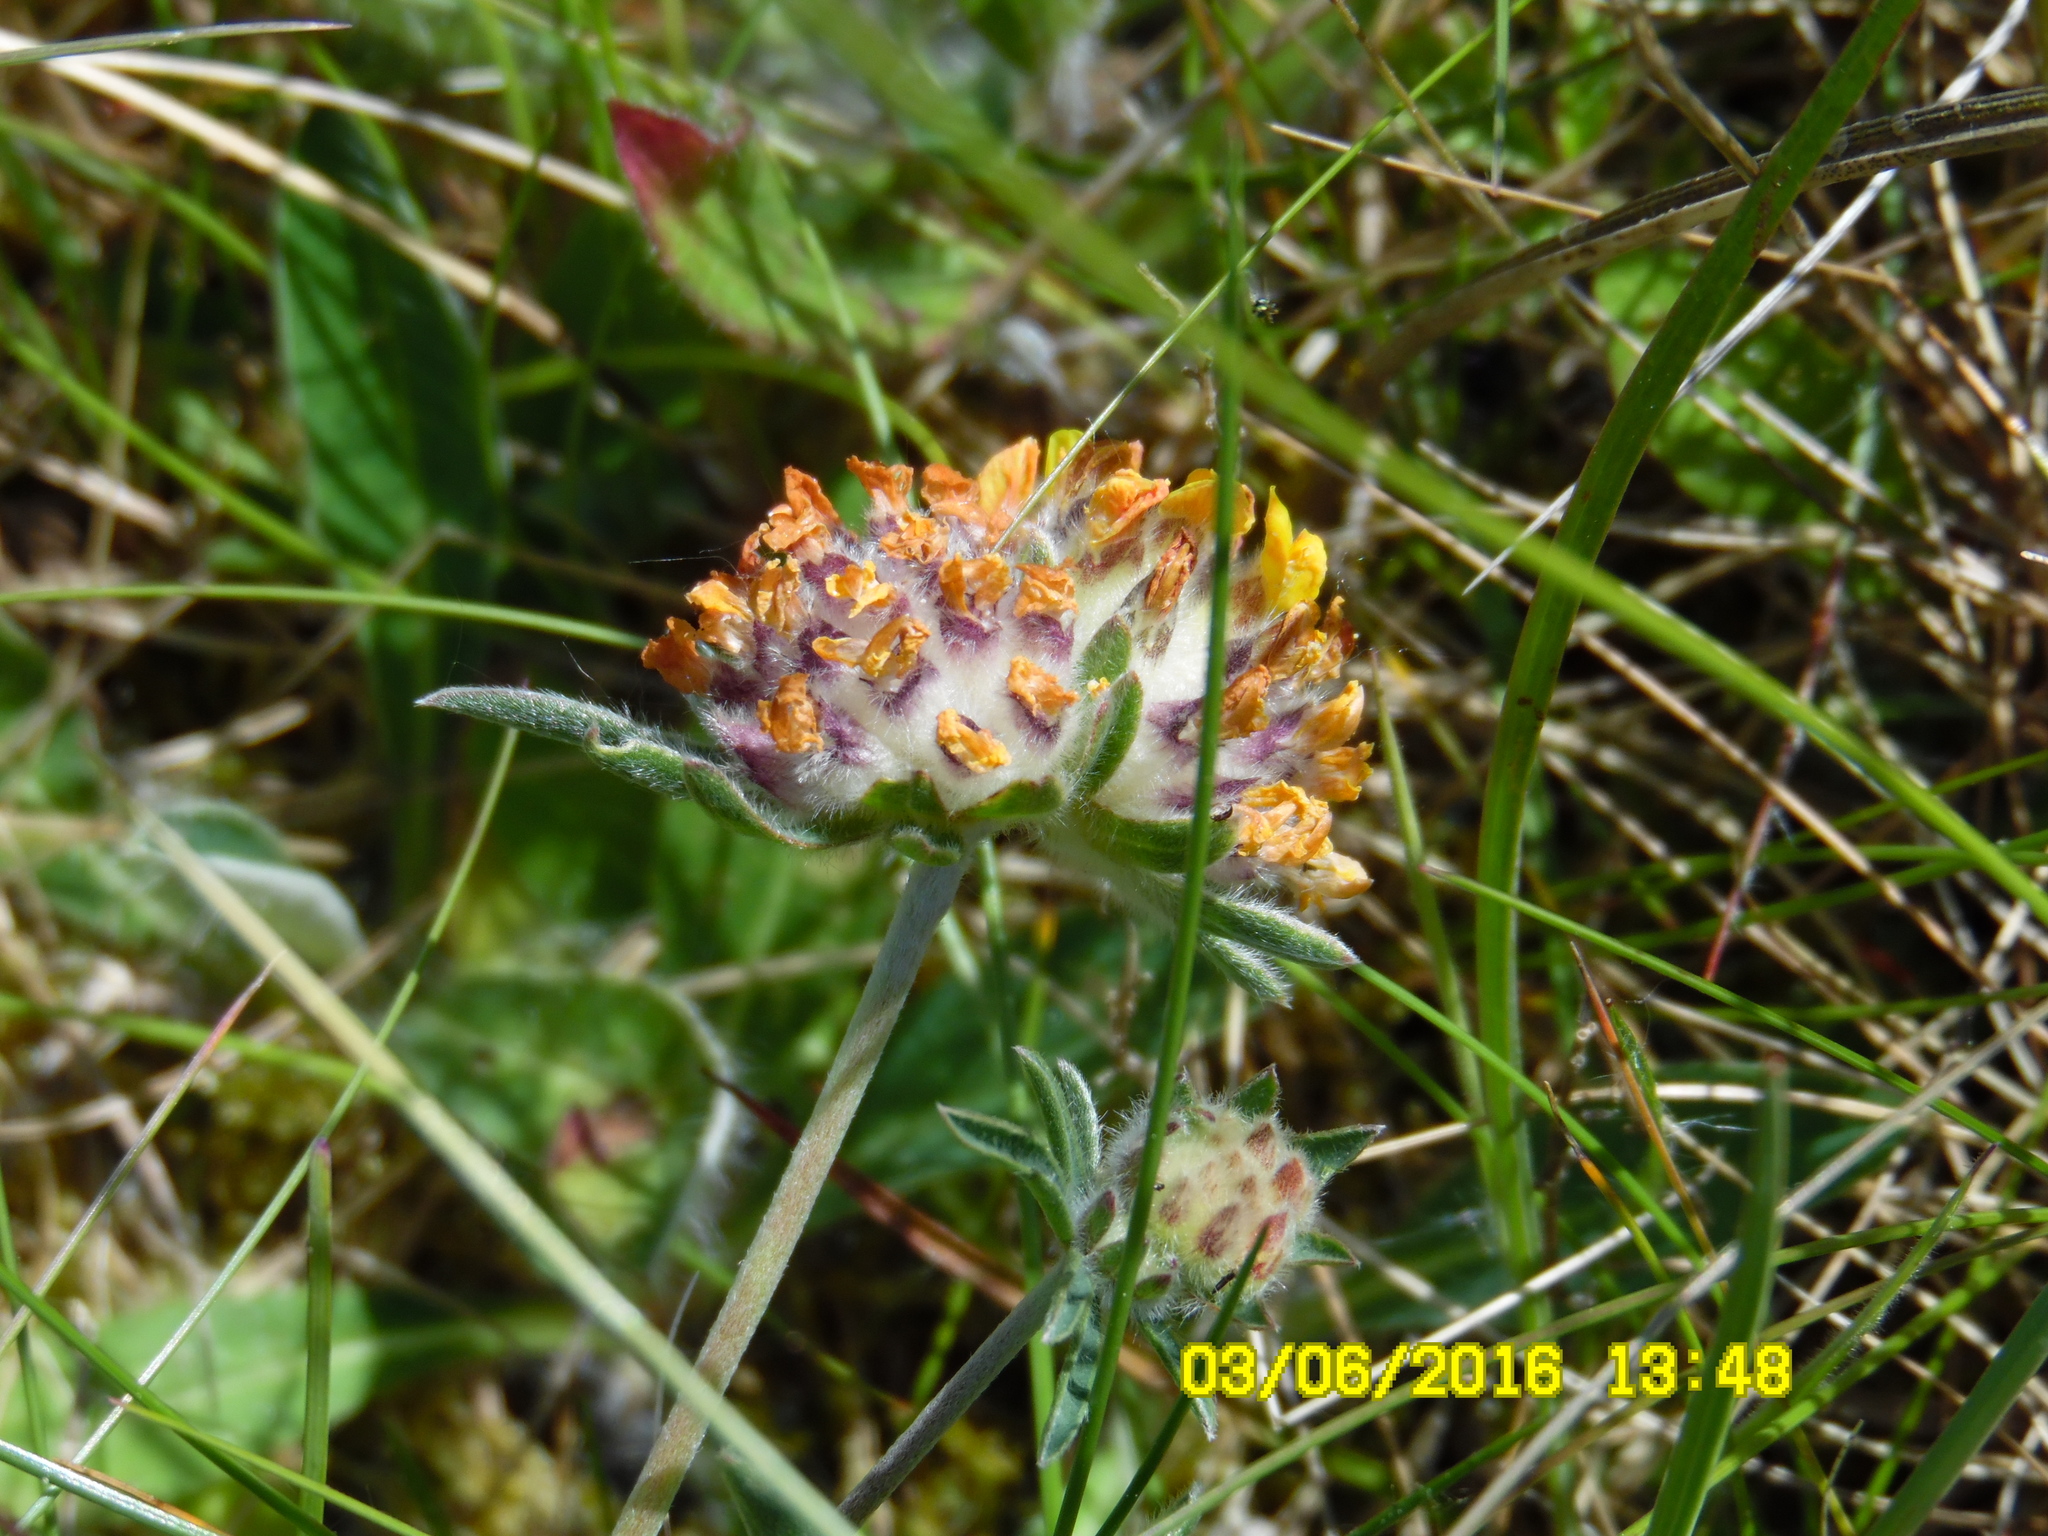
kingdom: Plantae
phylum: Tracheophyta
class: Magnoliopsida
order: Fabales
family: Fabaceae
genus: Anthyllis
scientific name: Anthyllis vulneraria
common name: Kidney vetch
